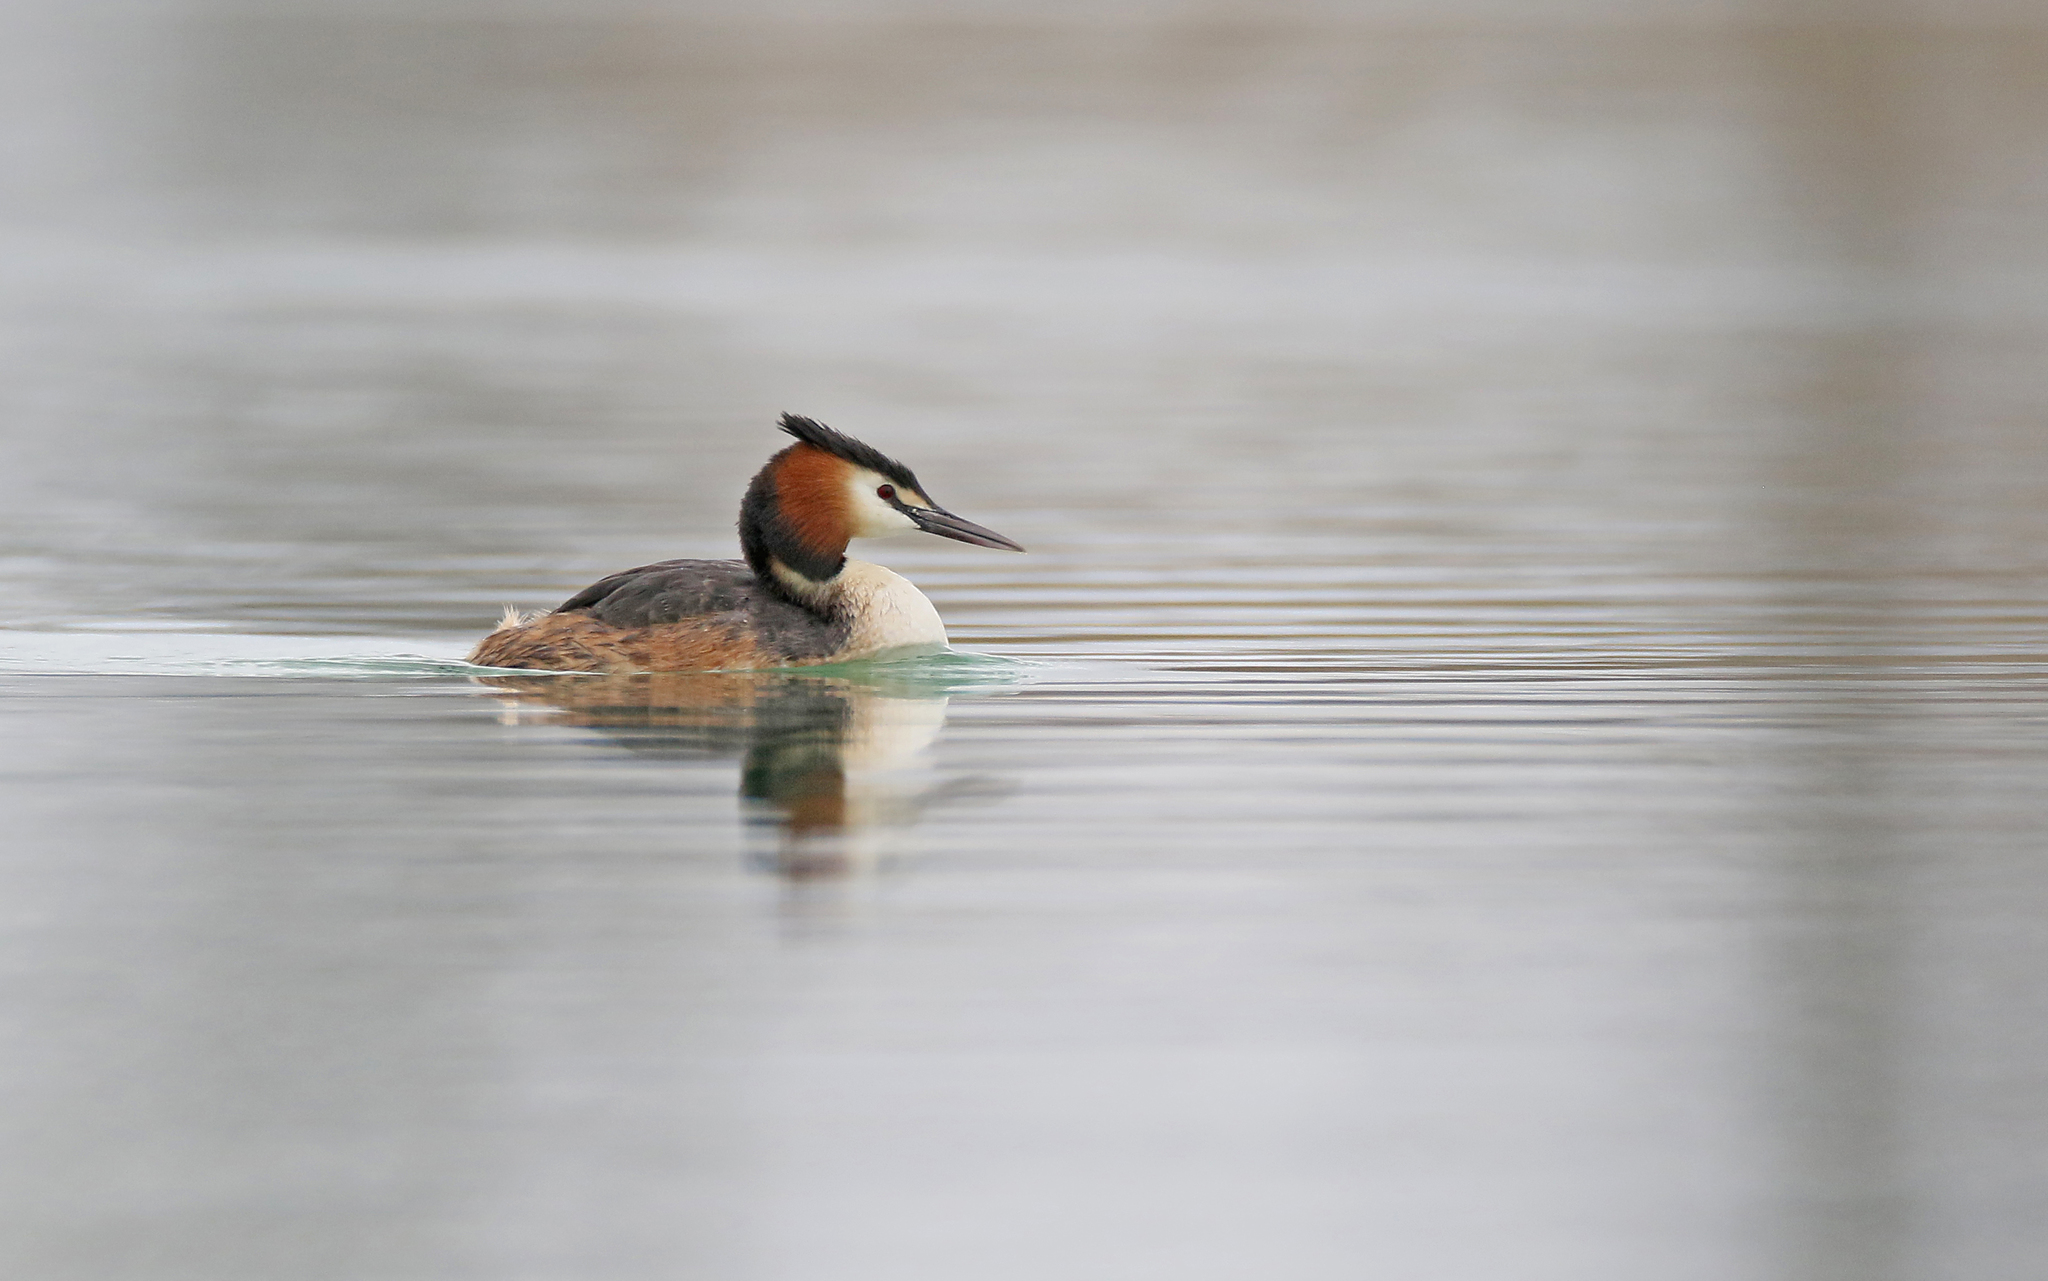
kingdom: Animalia
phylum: Chordata
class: Aves
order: Podicipediformes
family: Podicipedidae
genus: Podiceps
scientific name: Podiceps cristatus
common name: Great crested grebe
